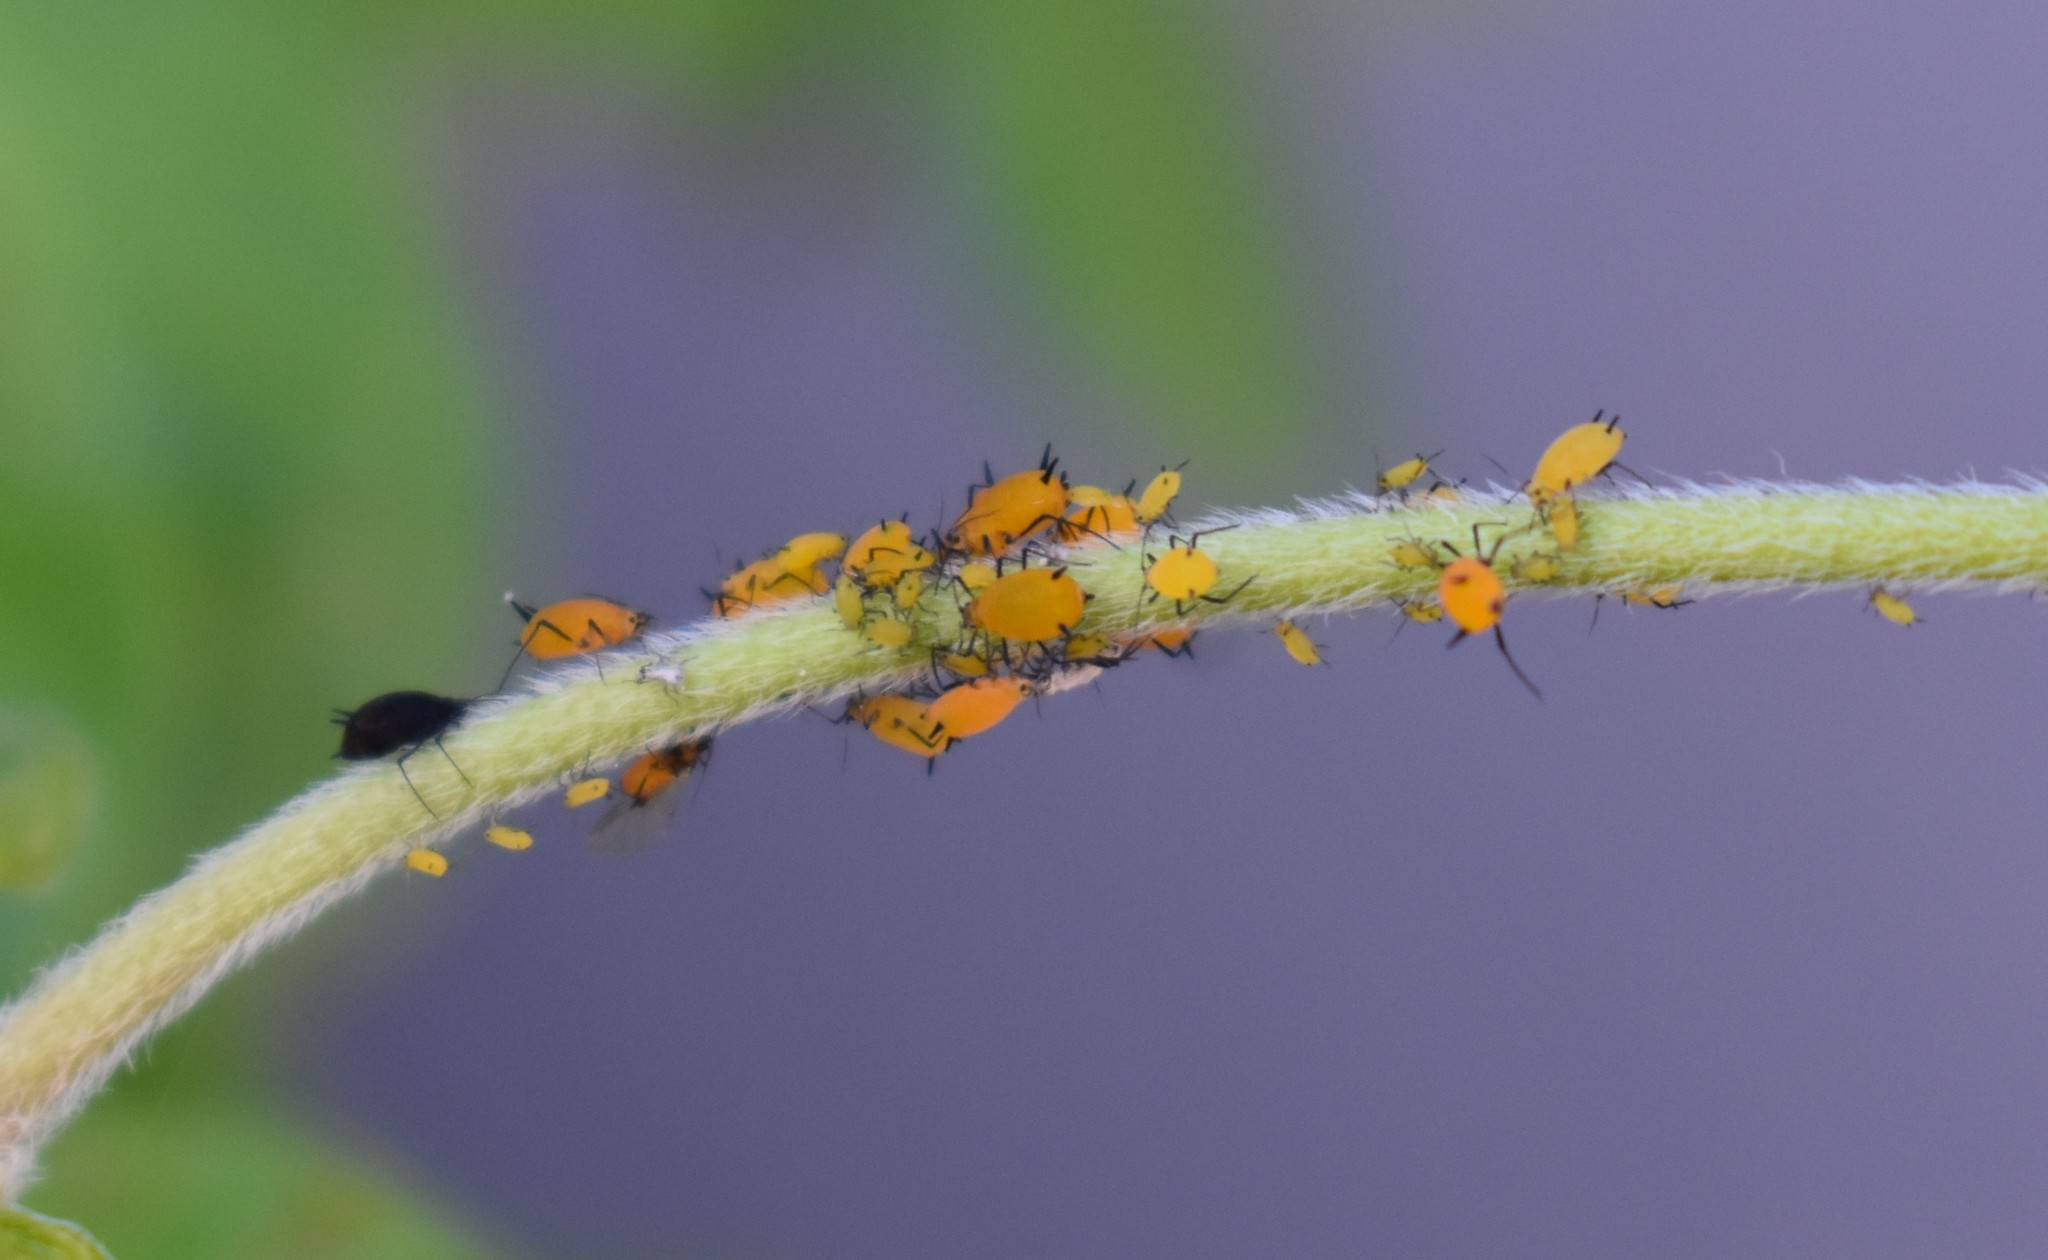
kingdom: Animalia
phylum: Arthropoda
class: Insecta
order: Hemiptera
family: Aphididae
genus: Aphis
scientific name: Aphis nerii
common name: Oleander aphid
